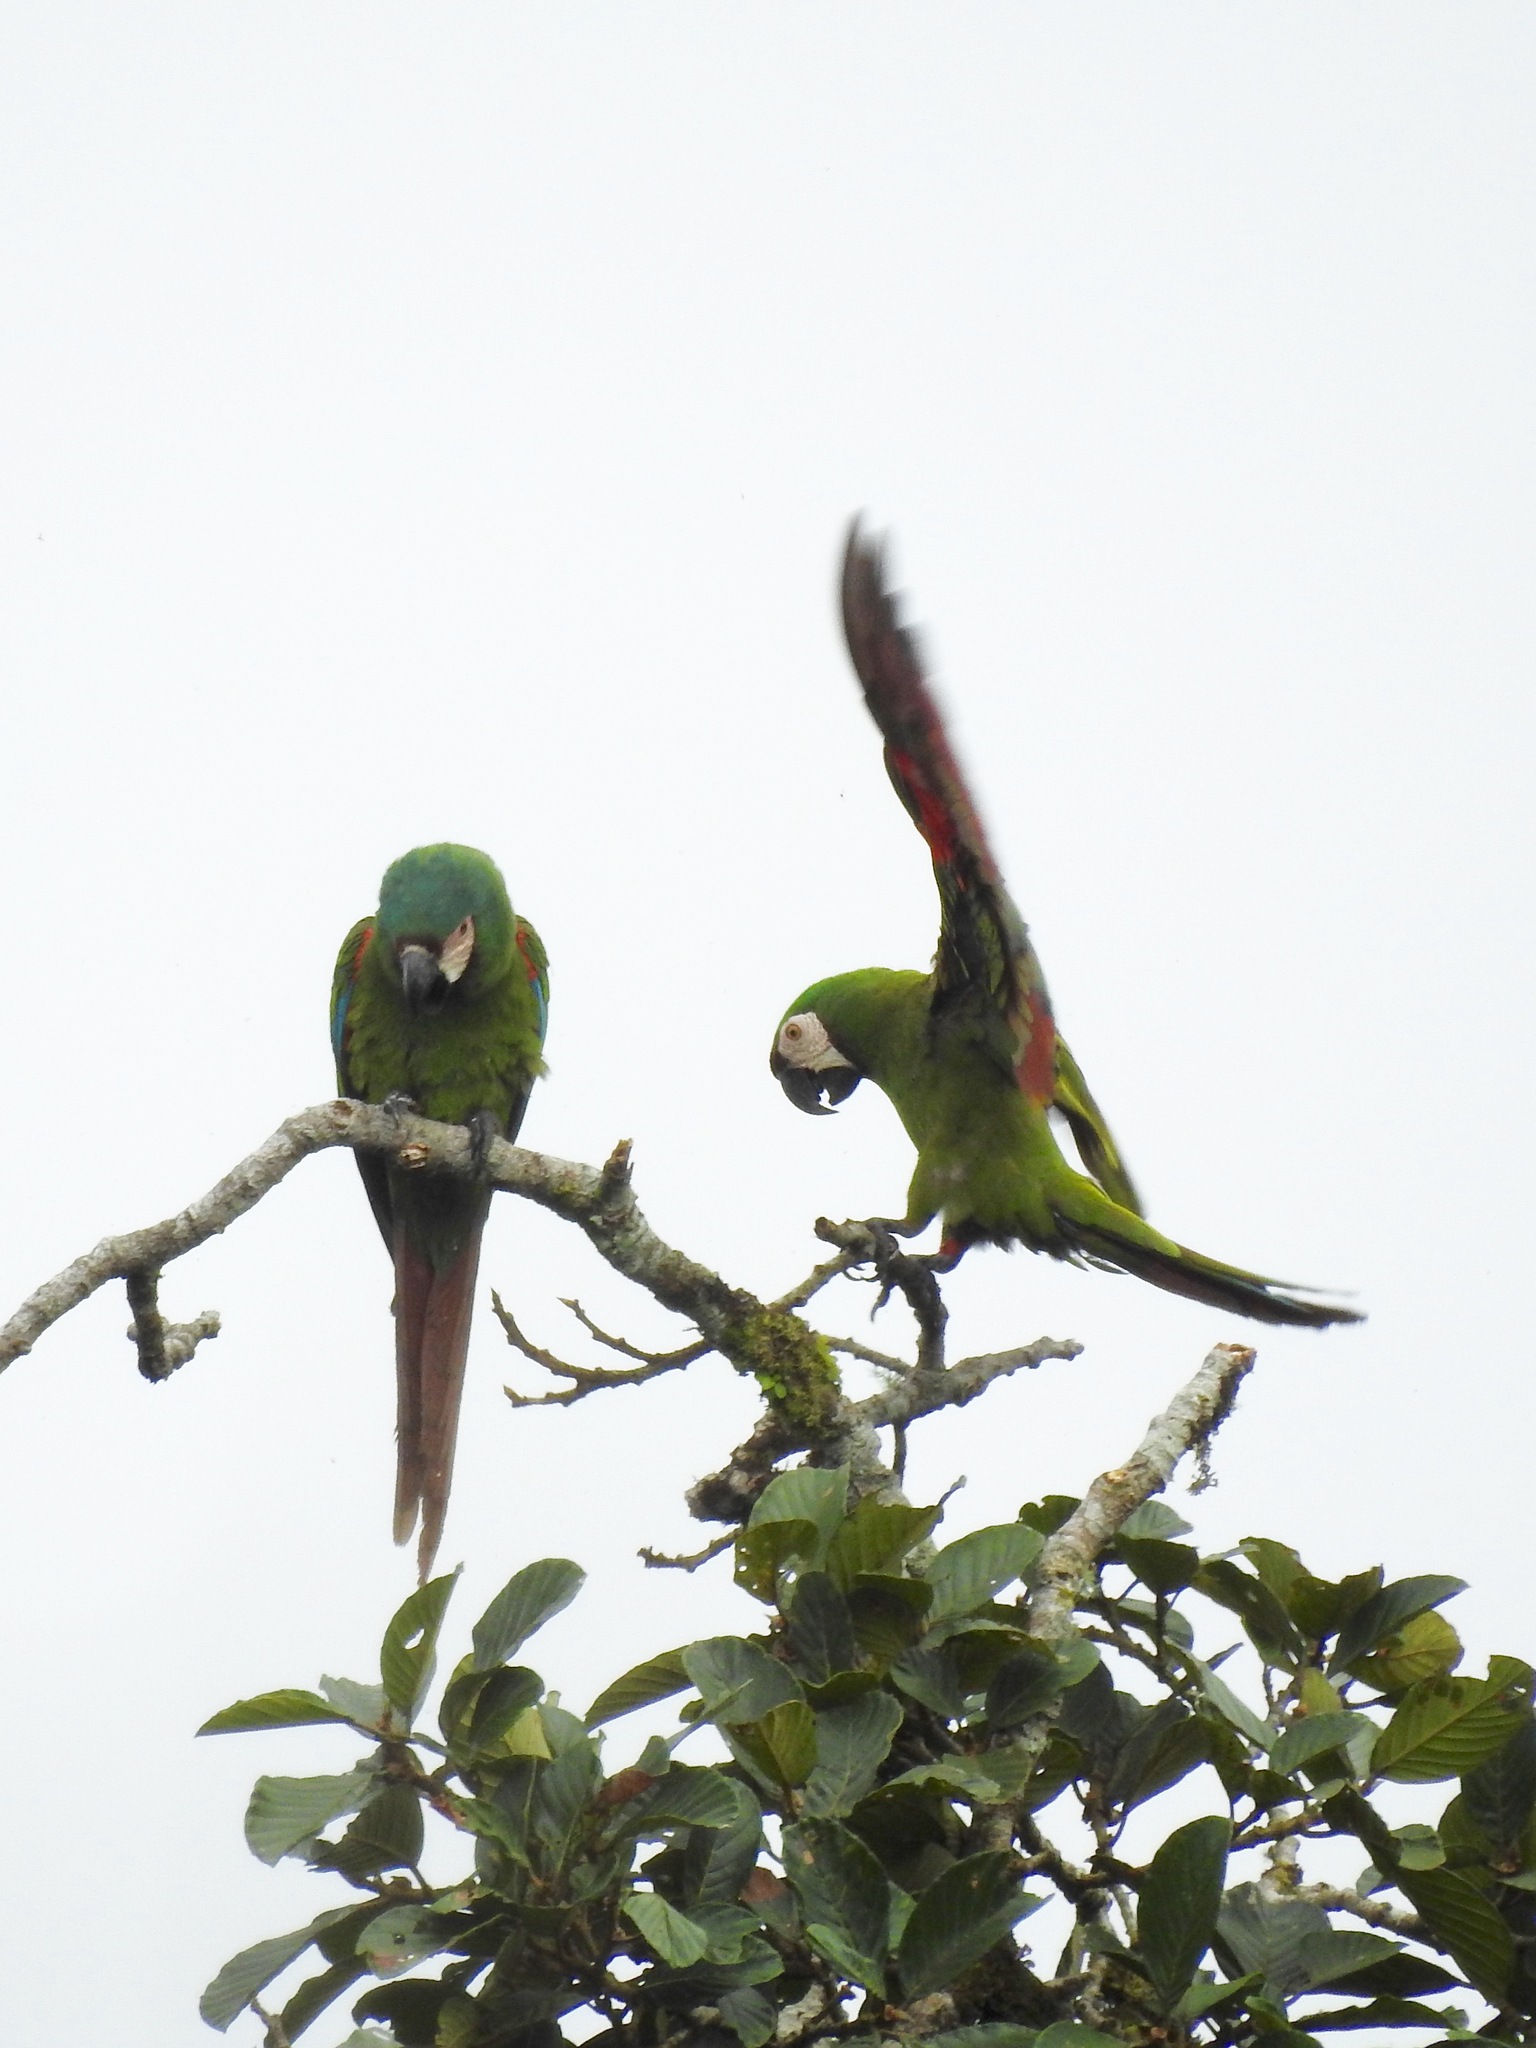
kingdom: Animalia
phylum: Chordata
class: Aves
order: Psittaciformes
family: Psittacidae
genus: Ara
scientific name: Ara severus
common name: Chestnut-fronted macaw
